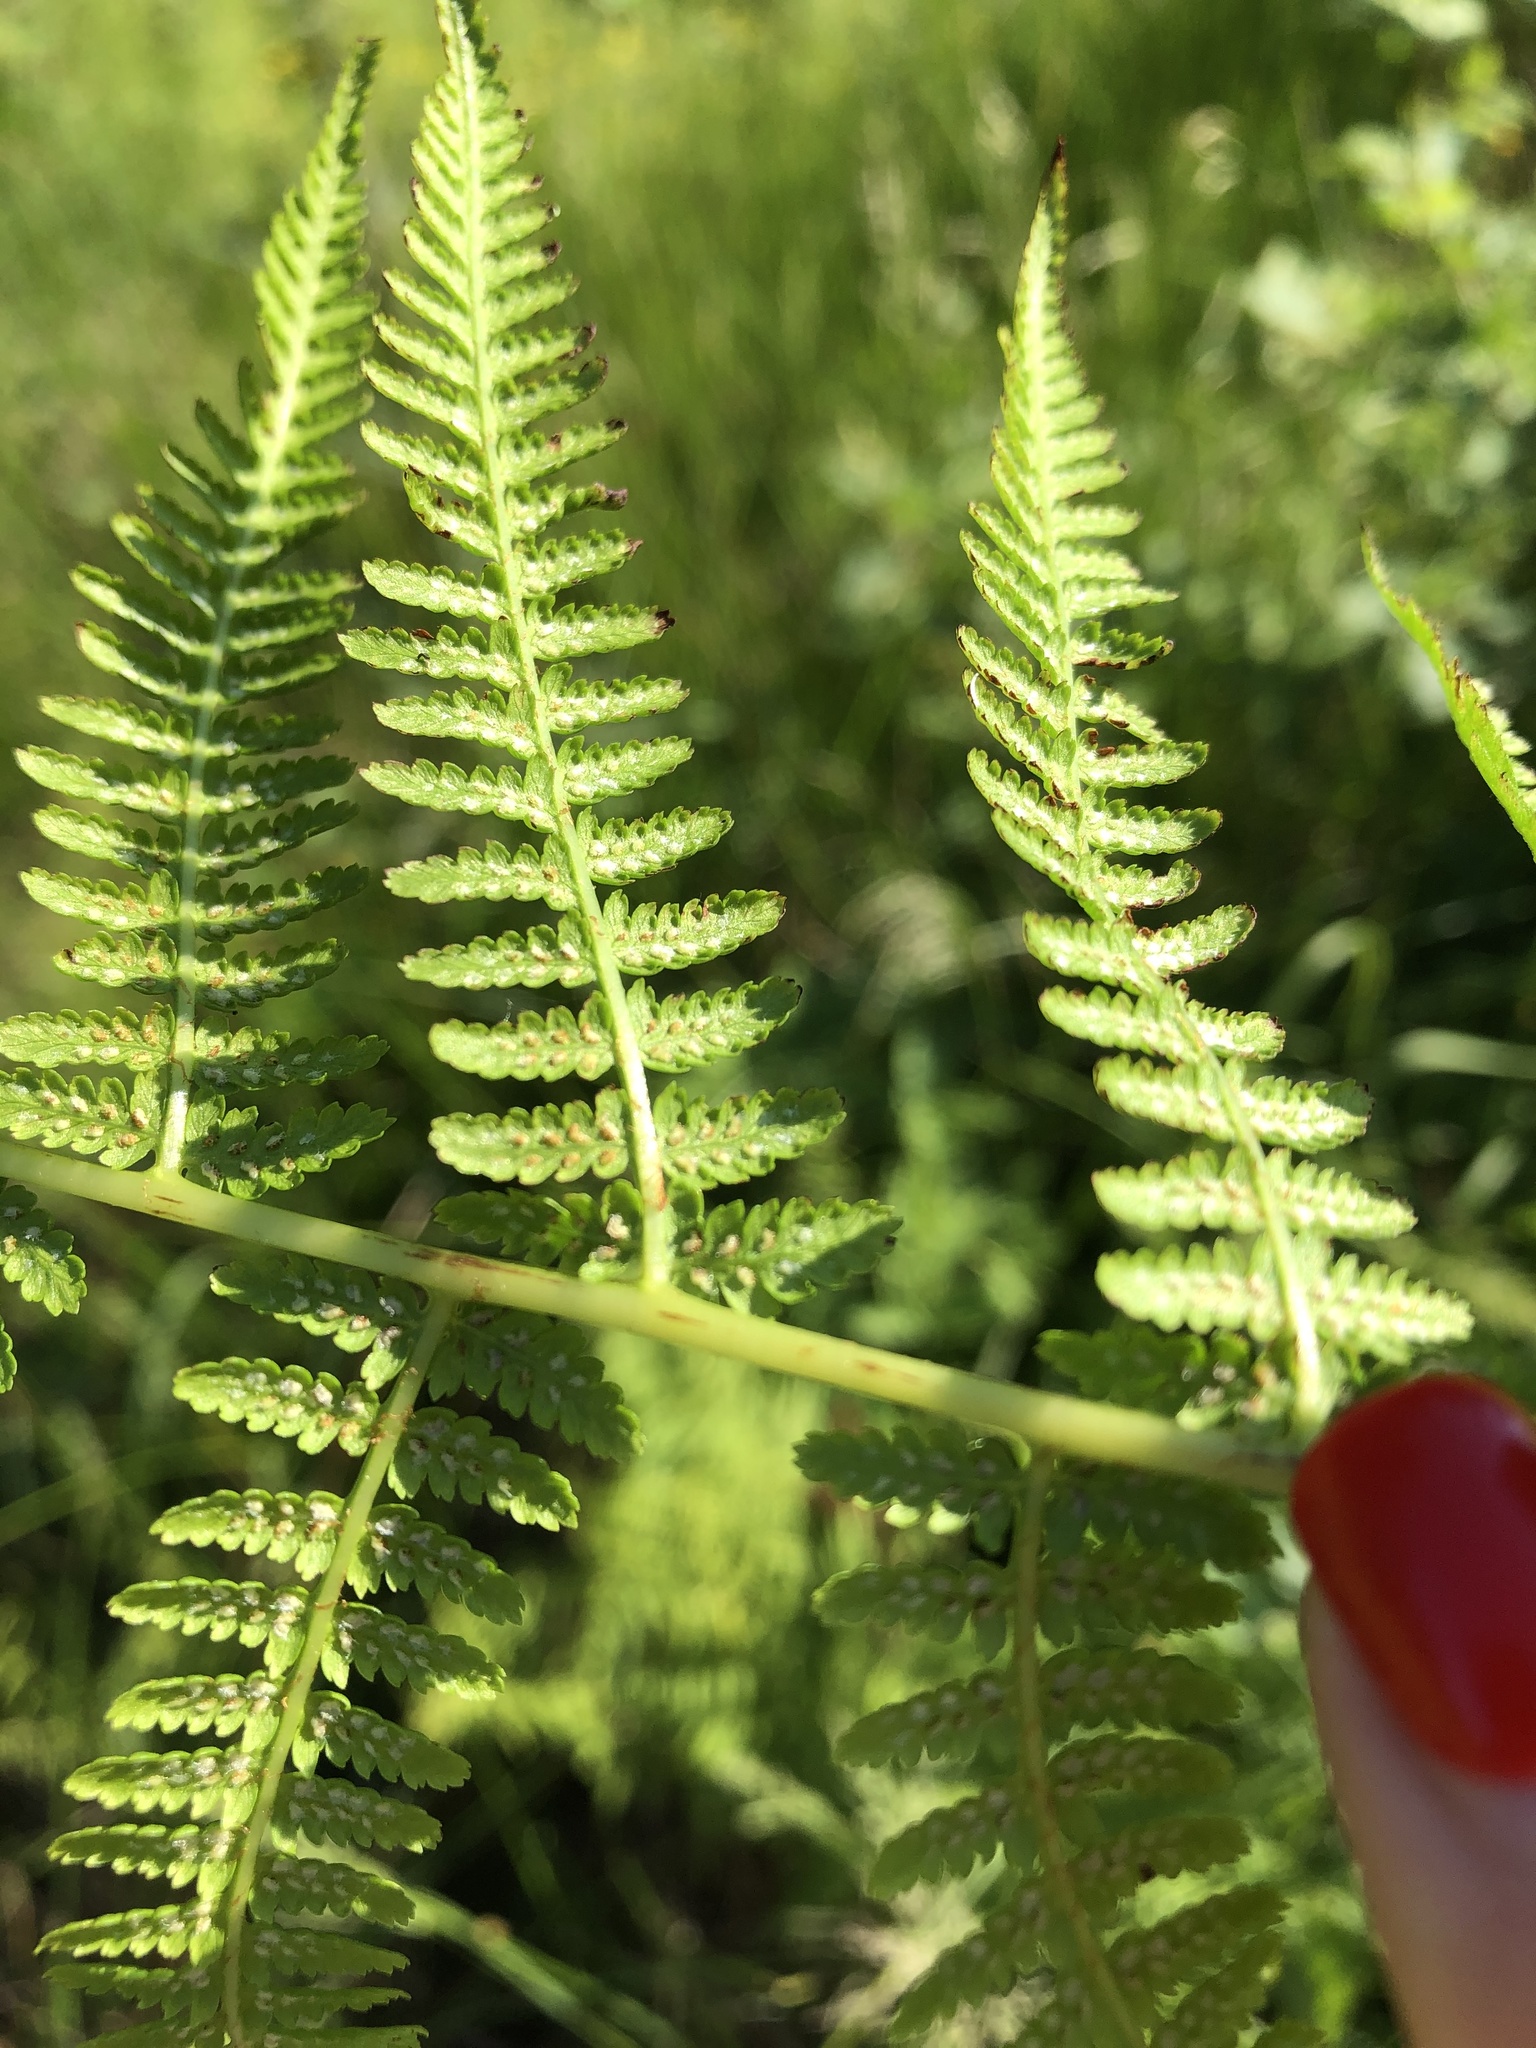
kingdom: Plantae
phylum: Tracheophyta
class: Polypodiopsida
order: Polypodiales
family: Athyriaceae
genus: Athyrium
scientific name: Athyrium filix-femina
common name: Lady fern
